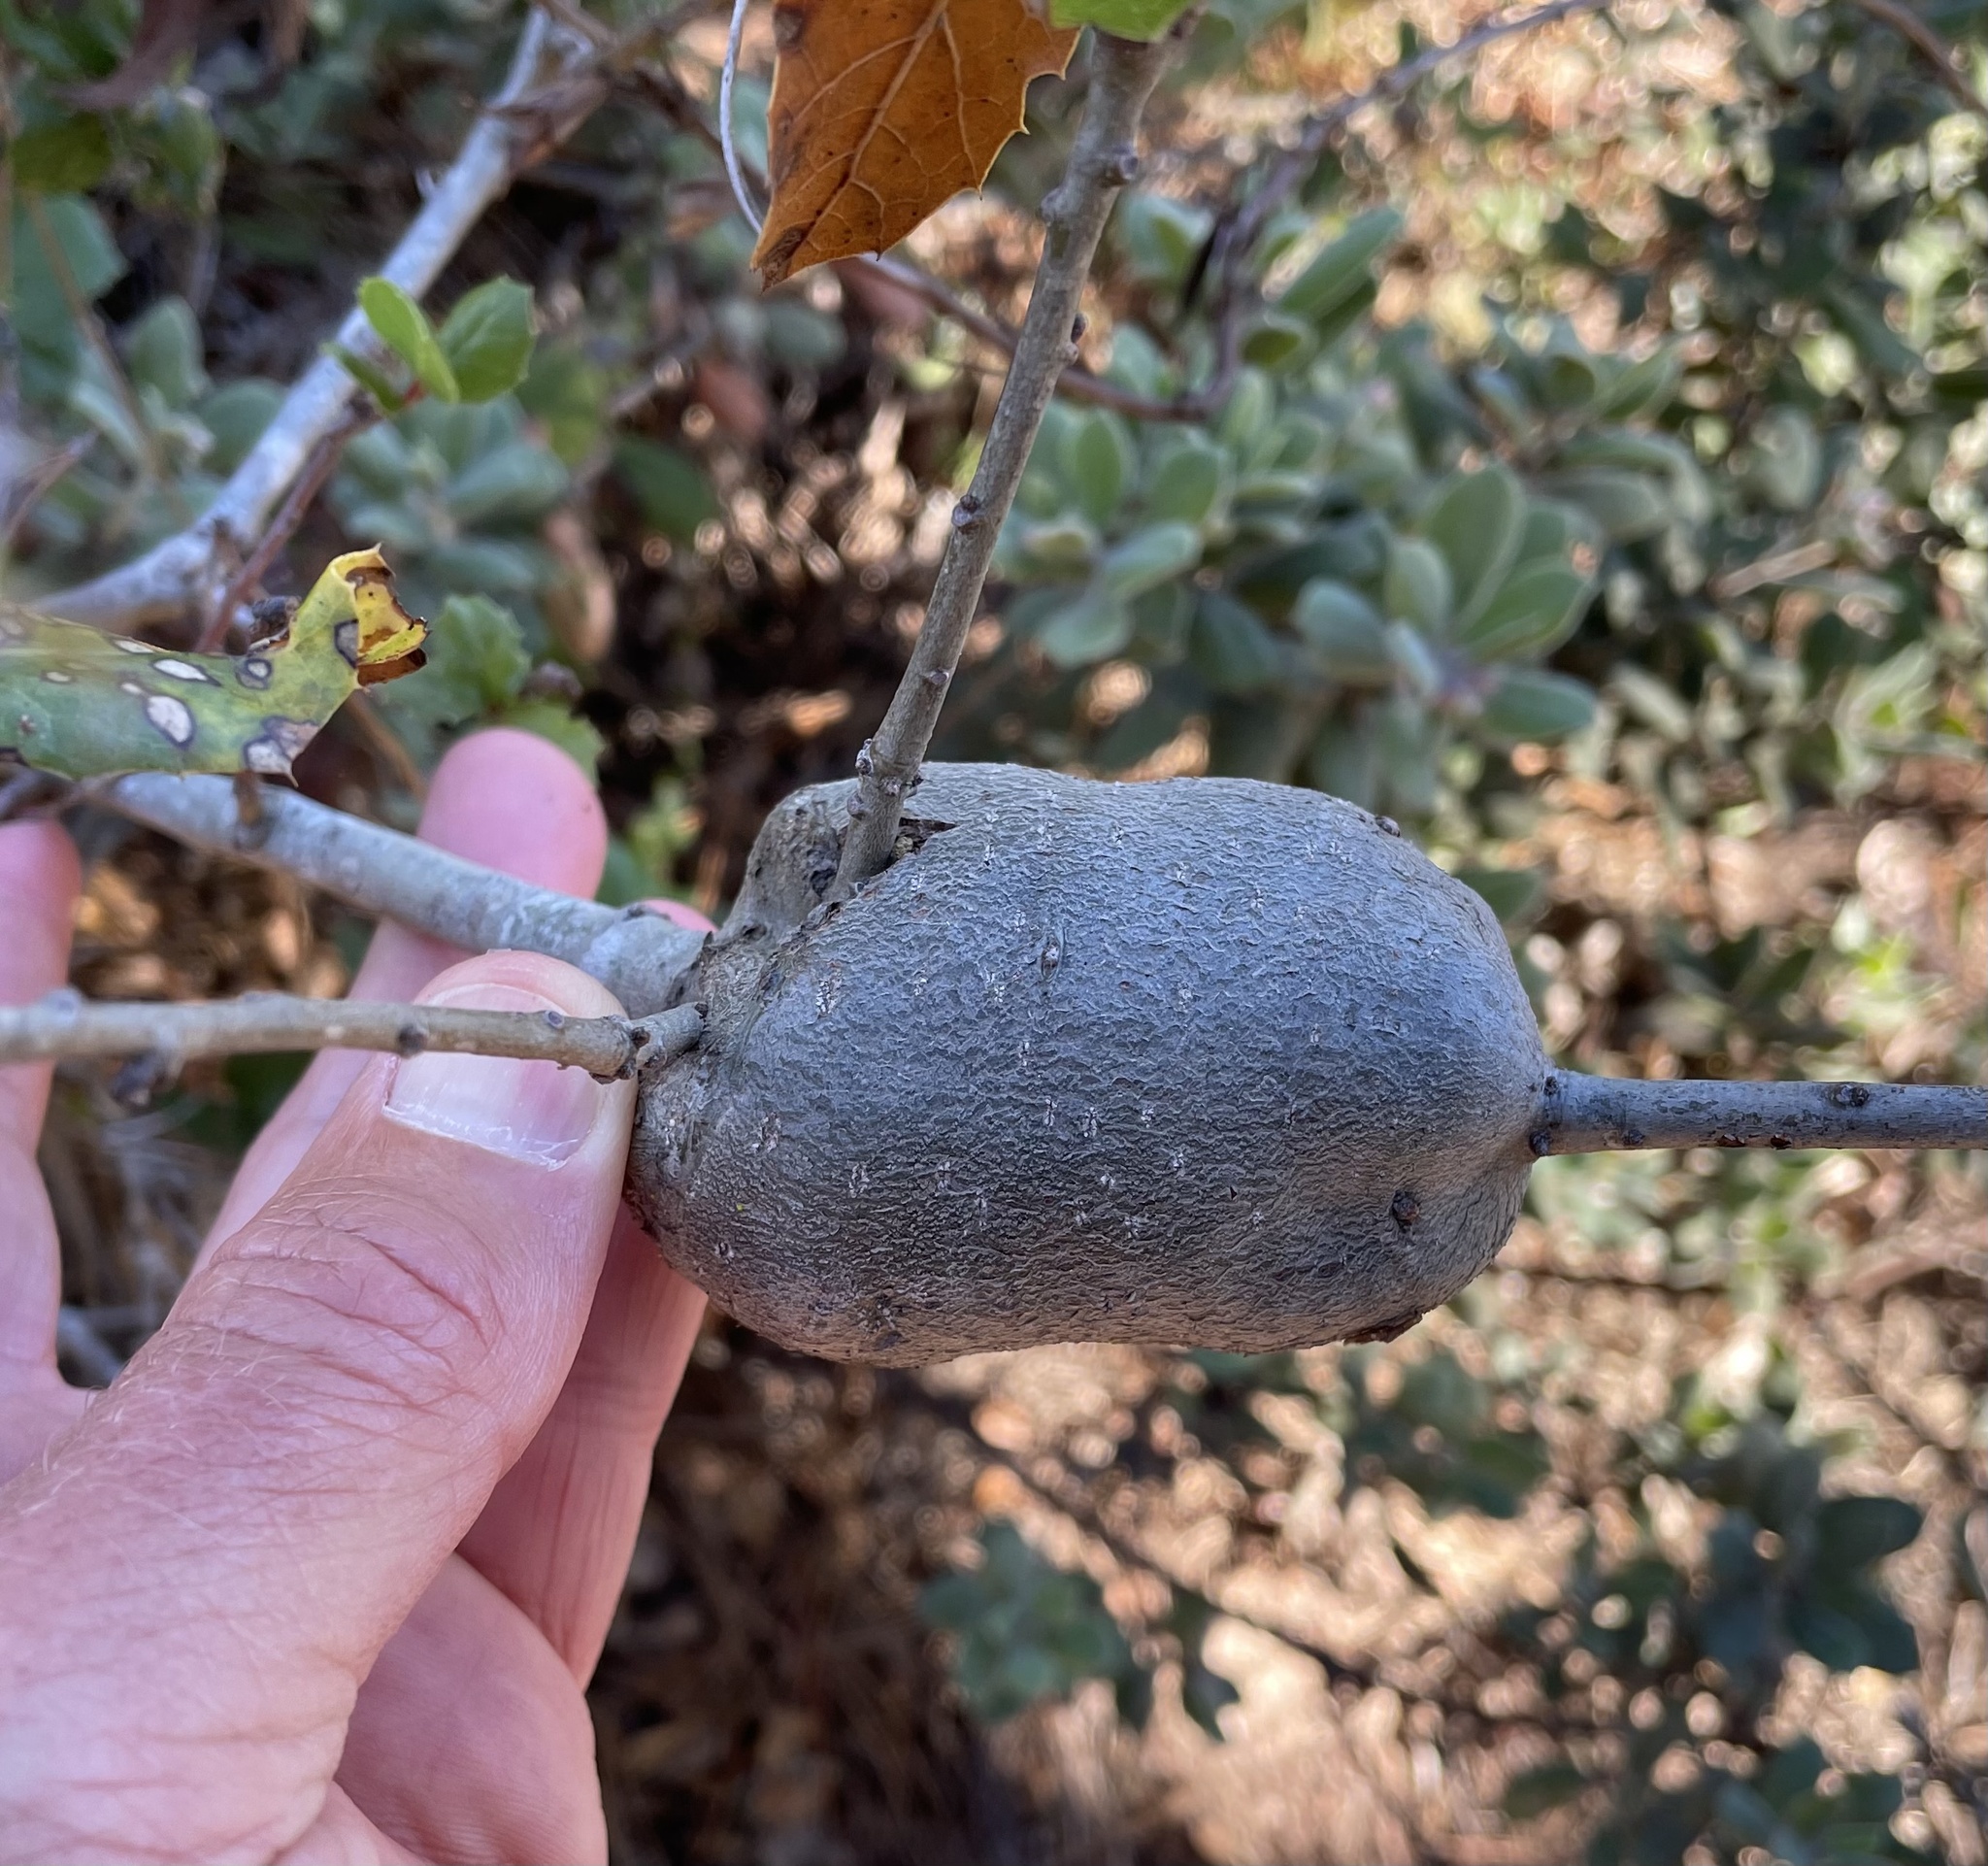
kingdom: Animalia
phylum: Arthropoda
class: Insecta
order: Hymenoptera
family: Cynipidae
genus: Callirhytis
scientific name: Callirhytis
